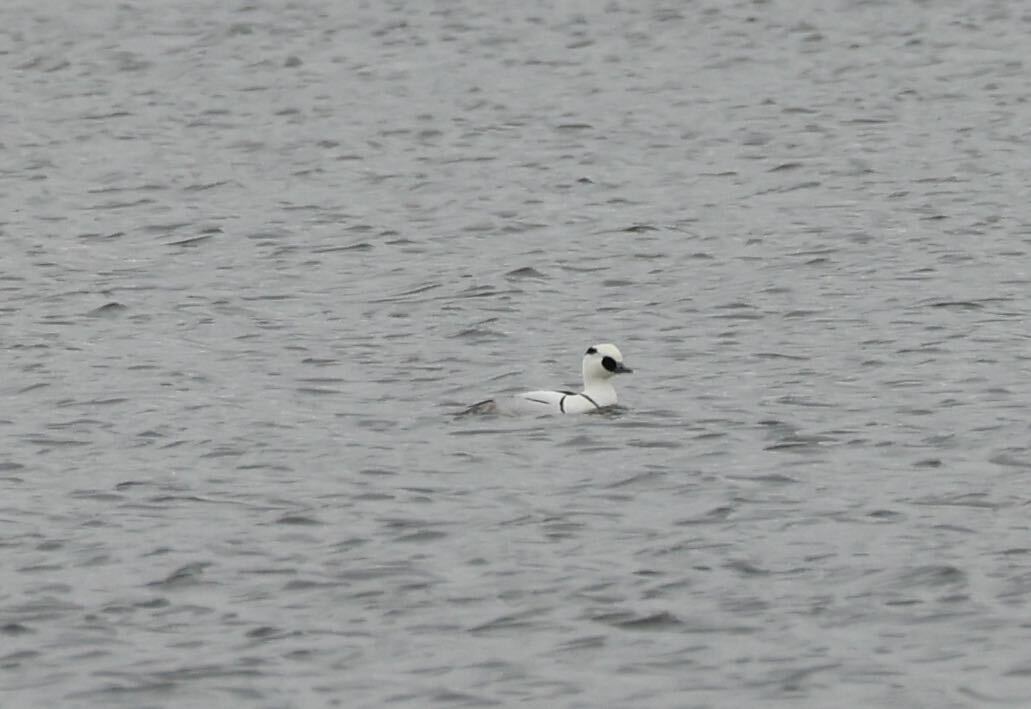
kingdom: Animalia
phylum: Chordata
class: Aves
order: Anseriformes
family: Anatidae
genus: Mergellus
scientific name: Mergellus albellus
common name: Smew
